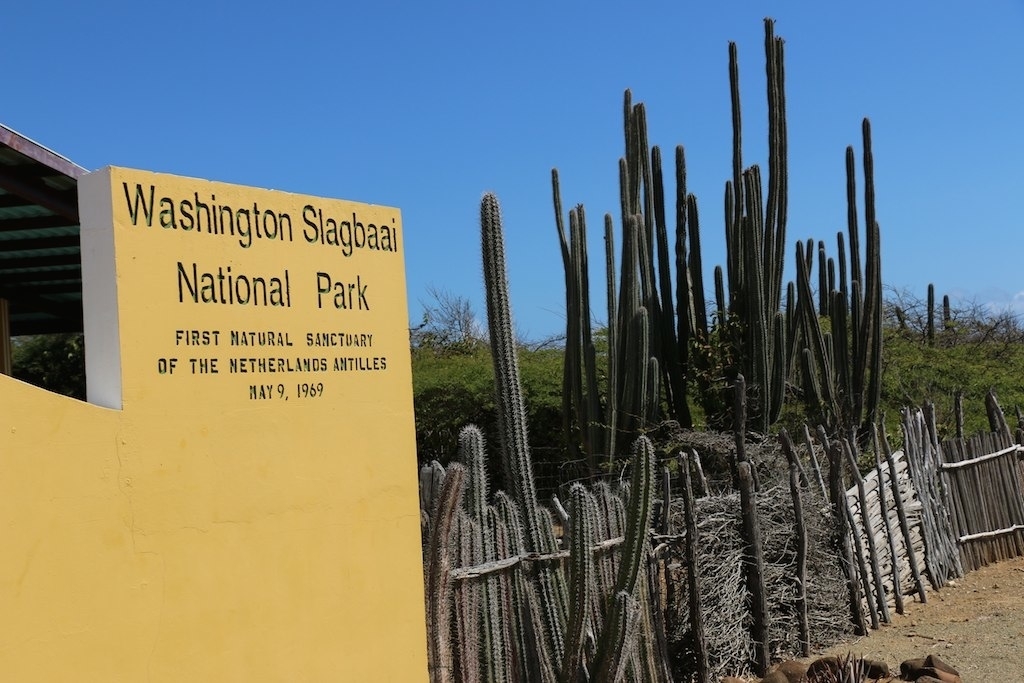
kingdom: Plantae
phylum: Tracheophyta
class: Magnoliopsida
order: Caryophyllales
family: Cactaceae
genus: Stenocereus
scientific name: Stenocereus griseus
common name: Tall candelabra cactus
